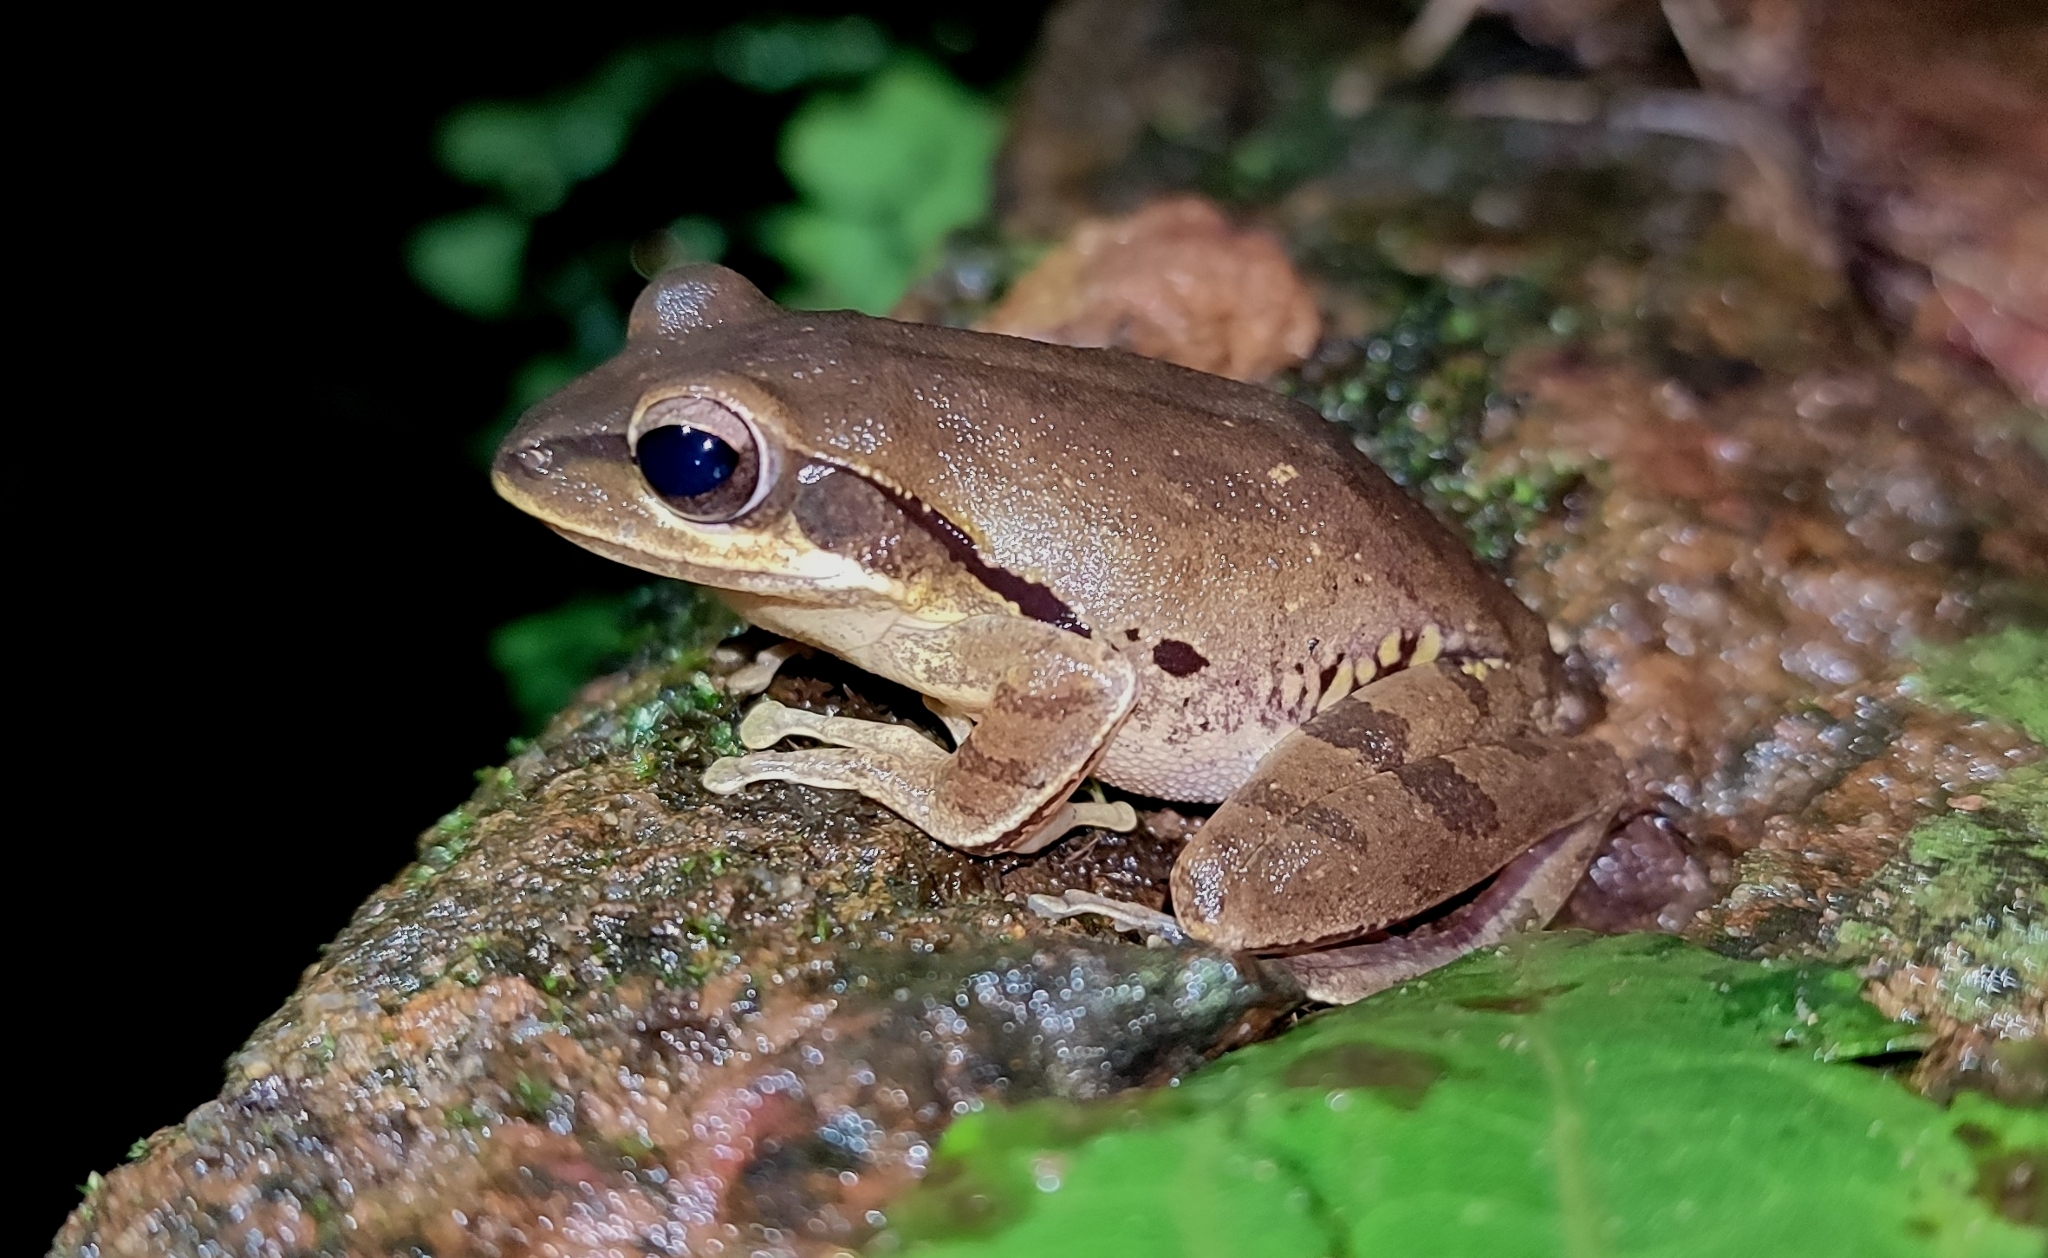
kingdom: Animalia
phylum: Chordata
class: Amphibia
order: Anura
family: Rhacophoridae
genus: Polypedates
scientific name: Polypedates maculatus
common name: Himalayan tree frog
